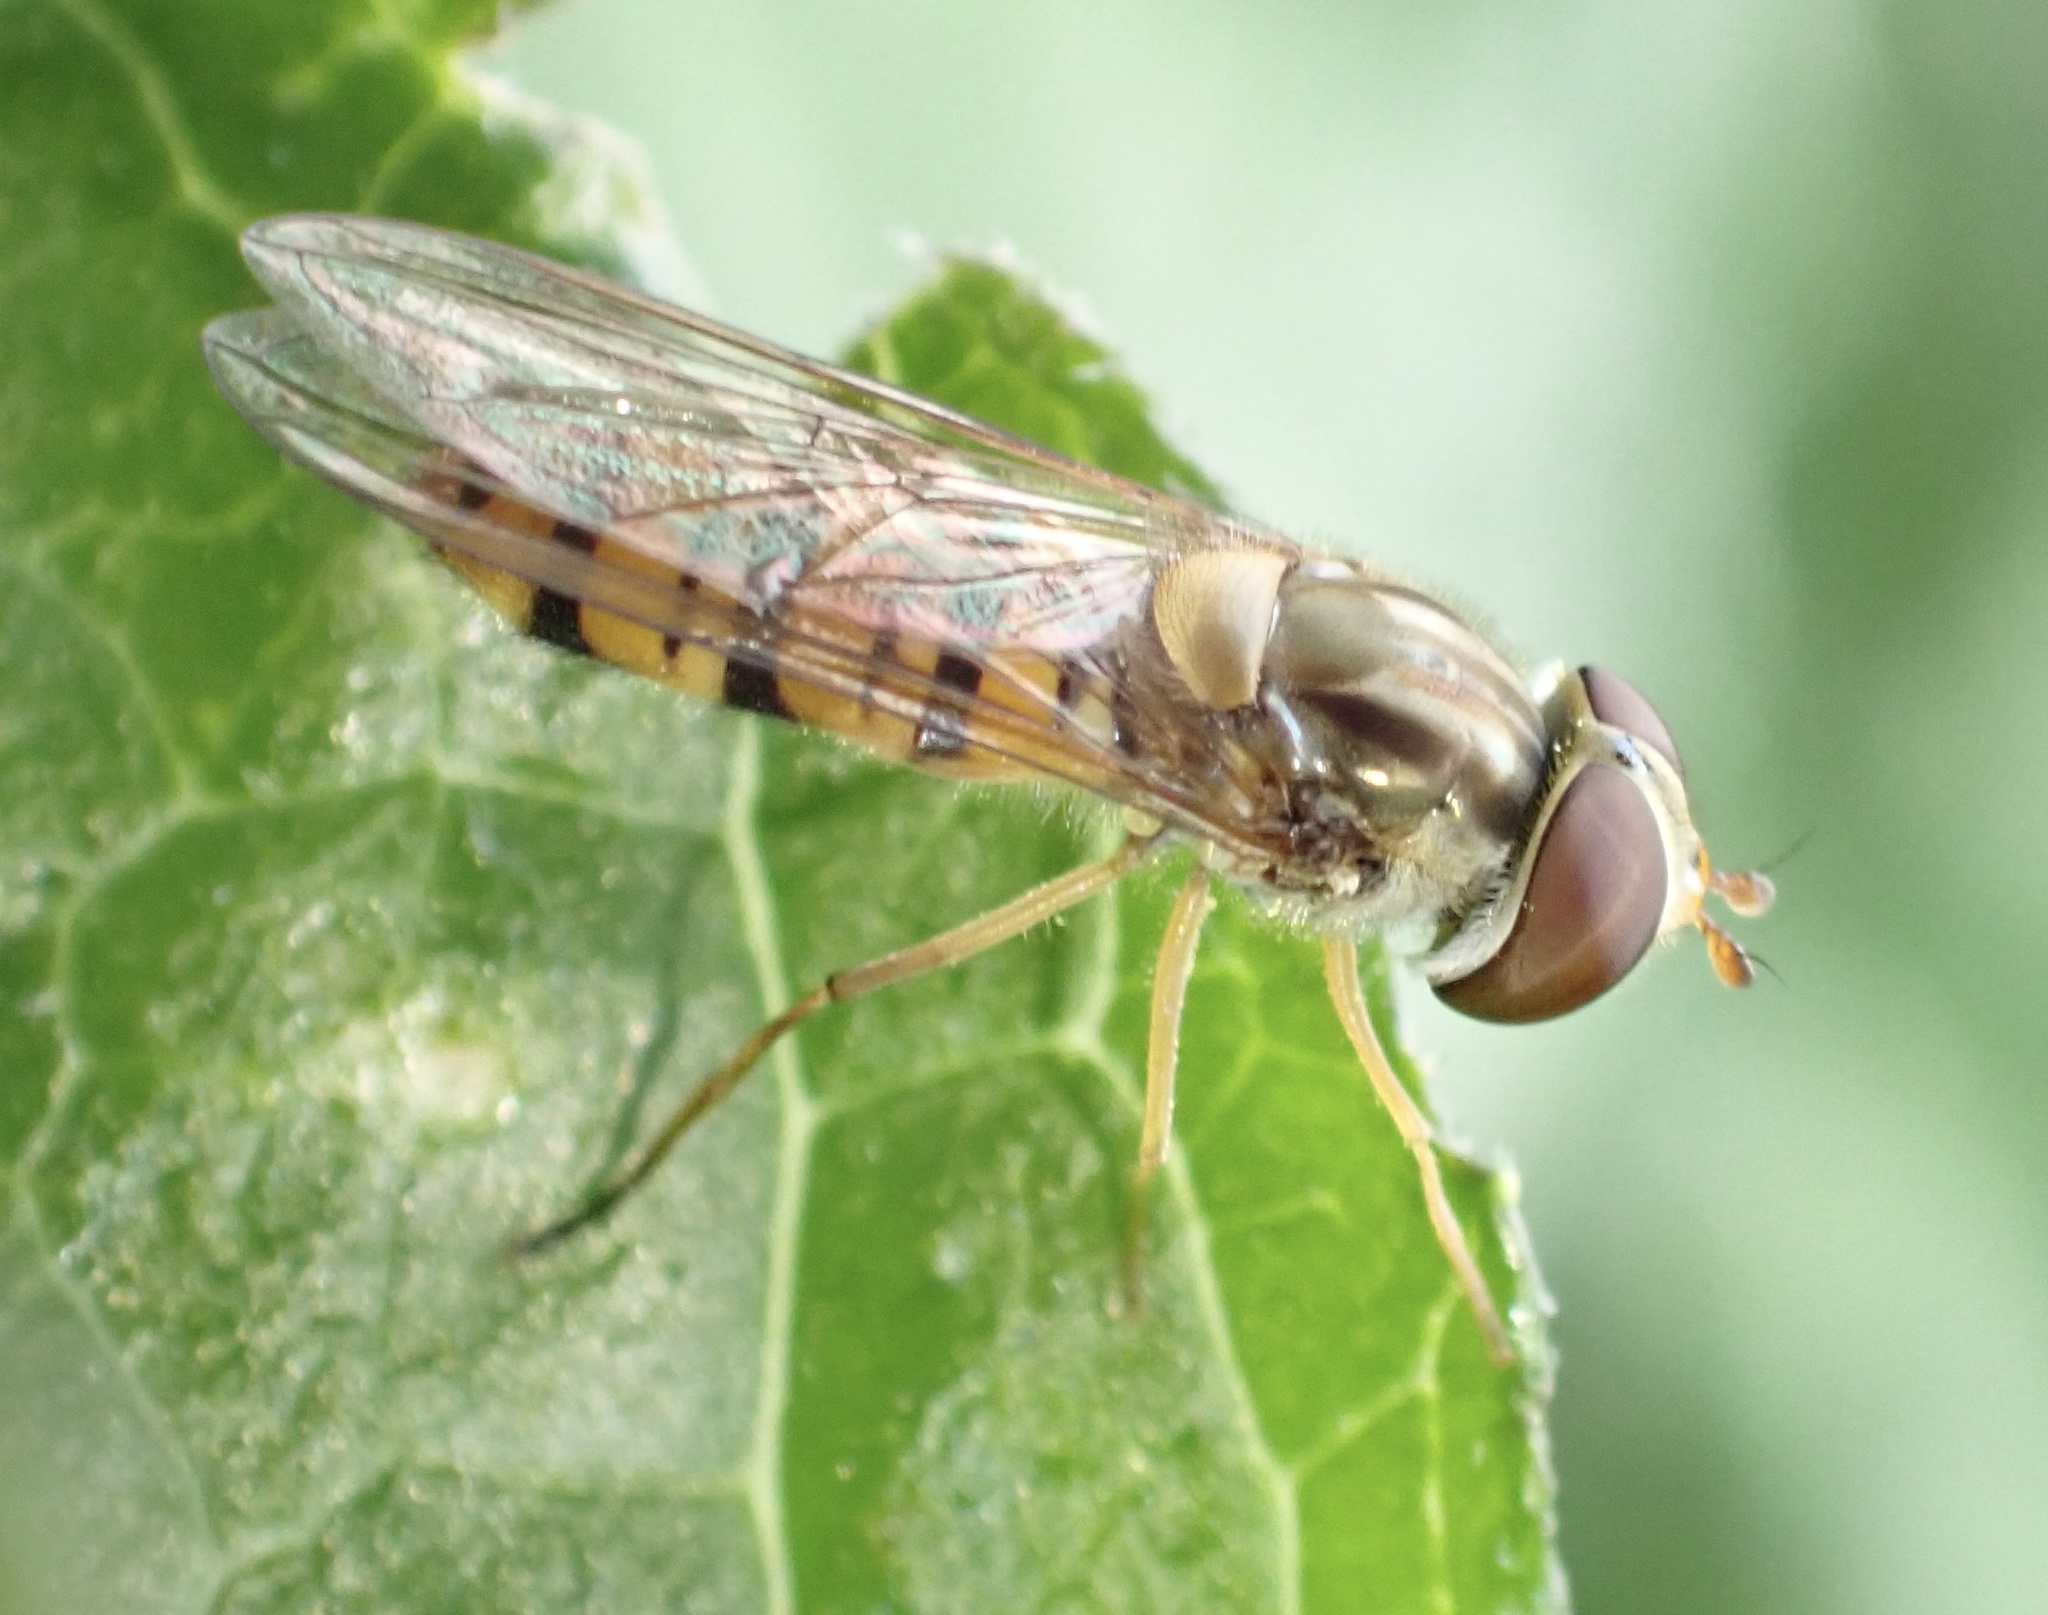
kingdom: Animalia
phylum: Arthropoda
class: Insecta
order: Diptera
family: Syrphidae
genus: Episyrphus
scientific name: Episyrphus balteatus
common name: Marmalade hoverfly
